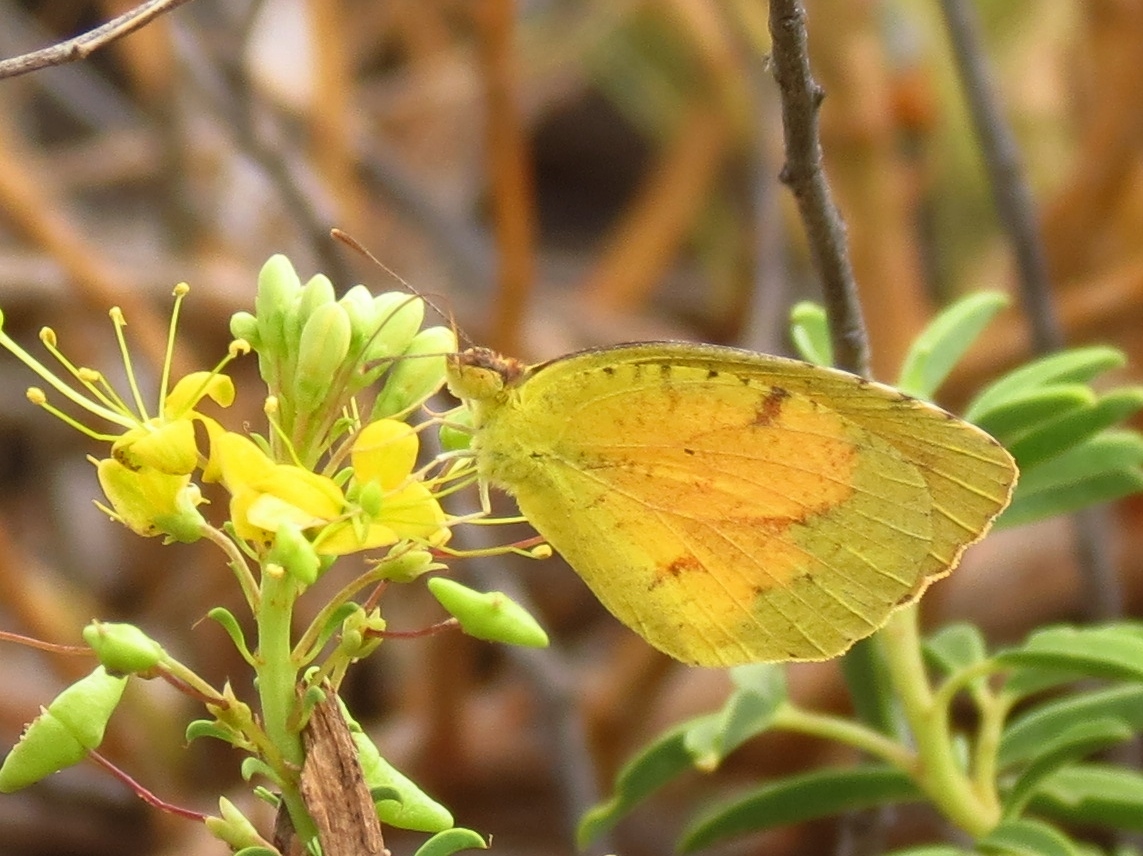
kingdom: Animalia
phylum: Arthropoda
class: Insecta
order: Lepidoptera
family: Pieridae
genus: Abaeis
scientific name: Abaeis nicippe
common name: Sleepy orange
